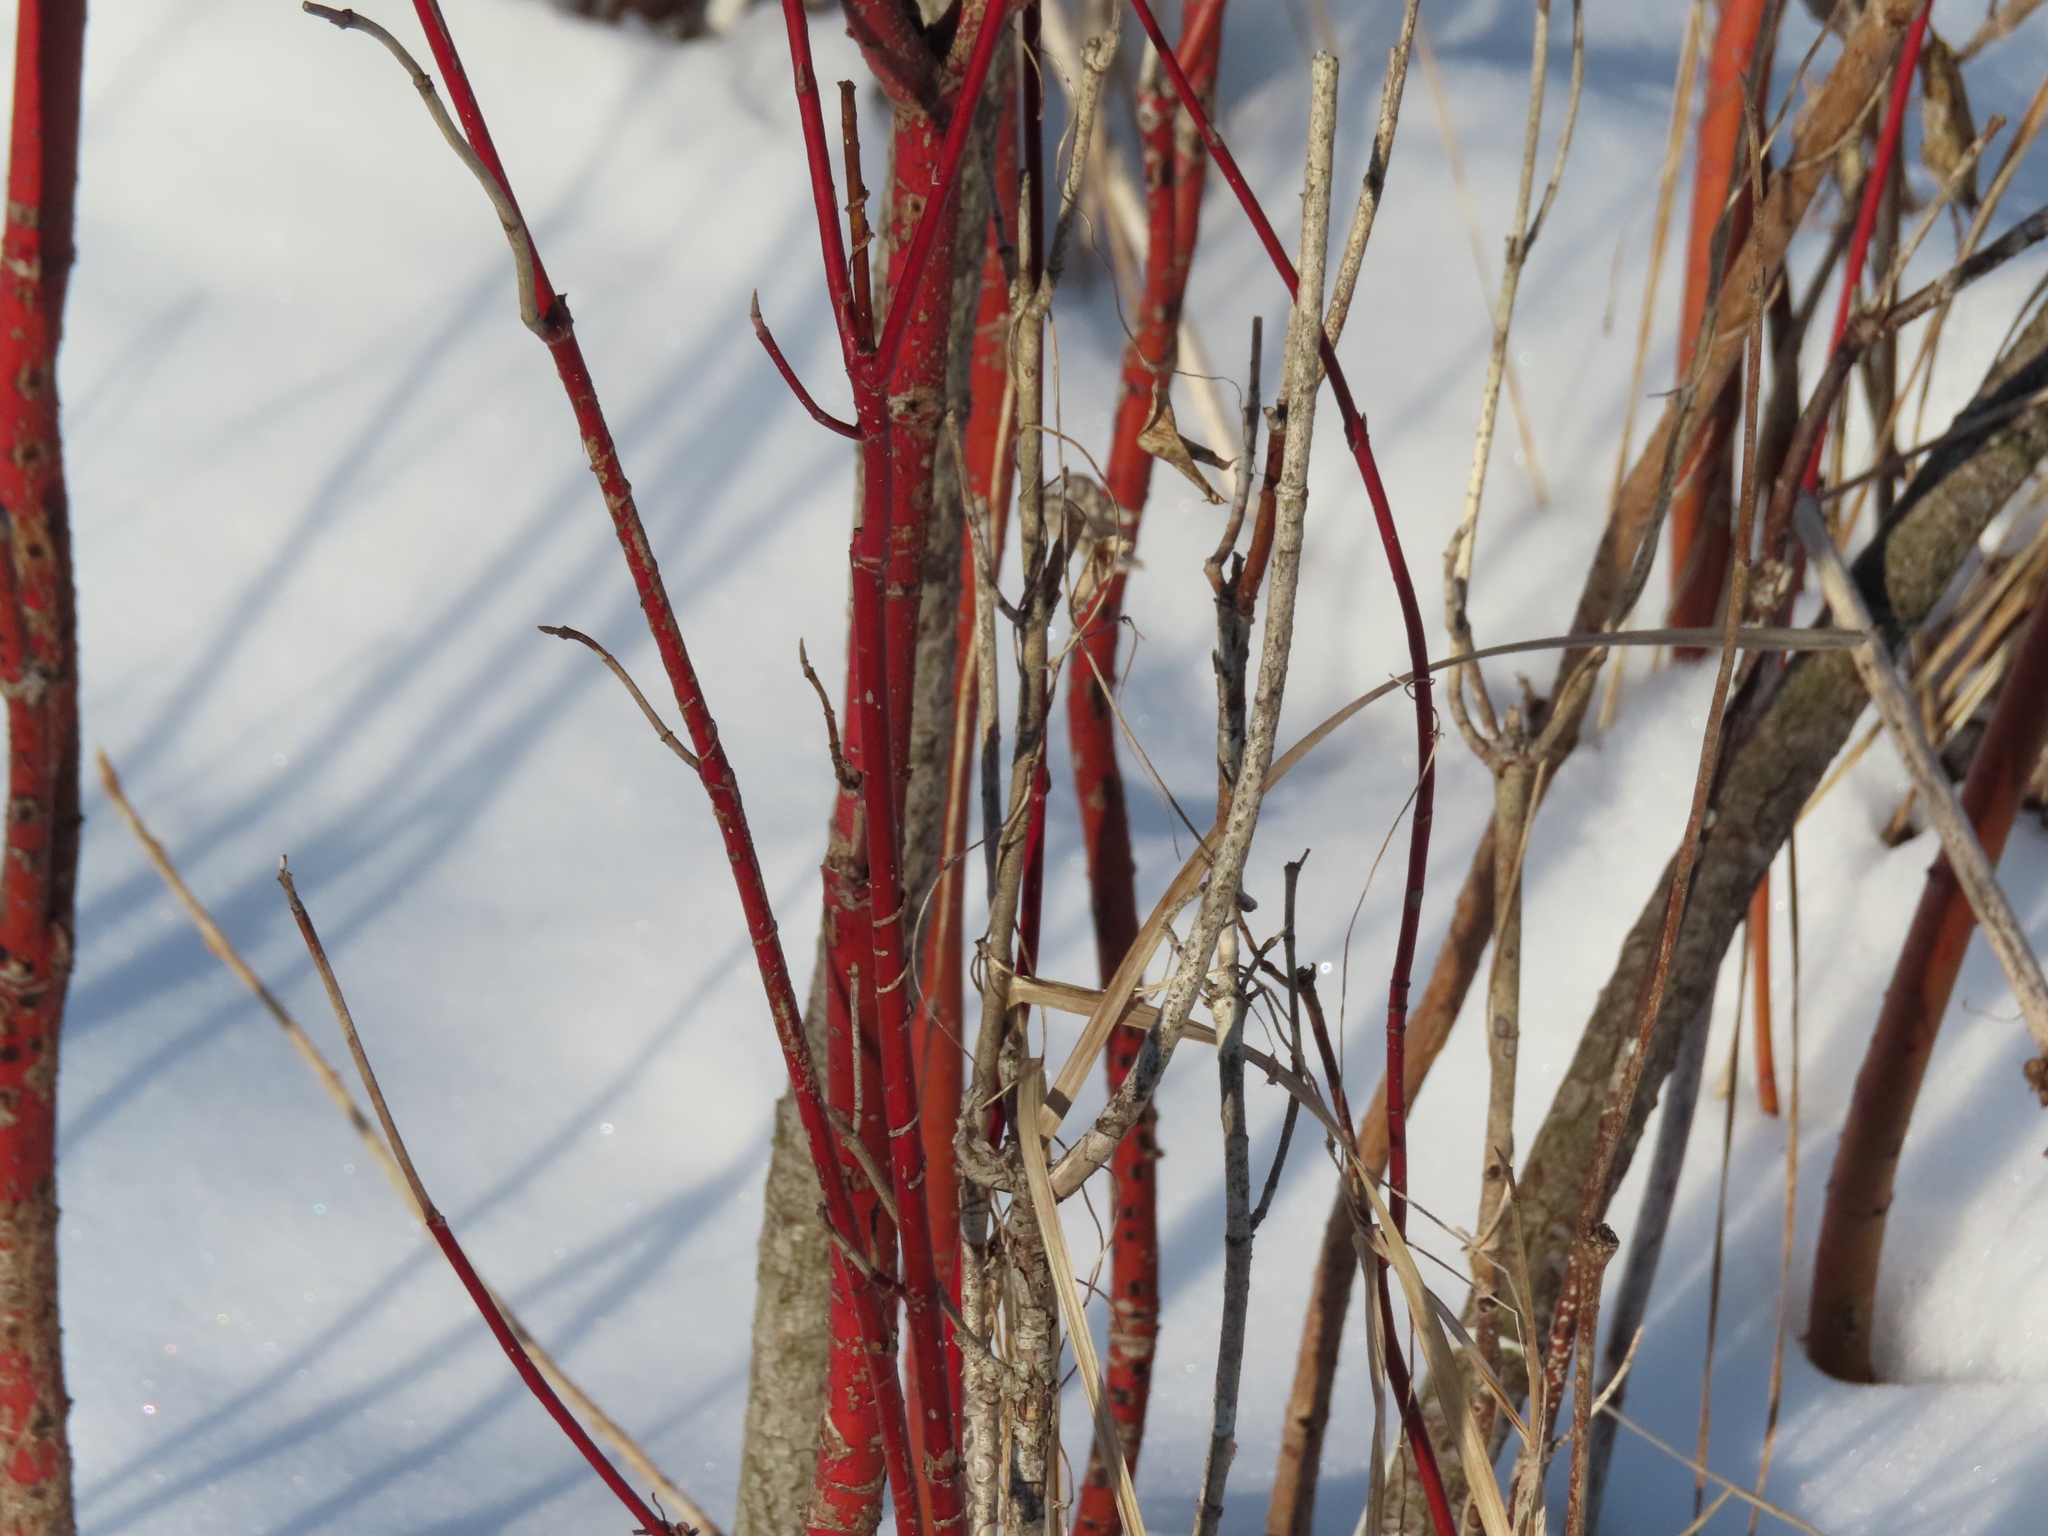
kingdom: Plantae
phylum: Tracheophyta
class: Magnoliopsida
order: Cornales
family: Cornaceae
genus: Cornus
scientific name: Cornus sericea
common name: Red-osier dogwood
